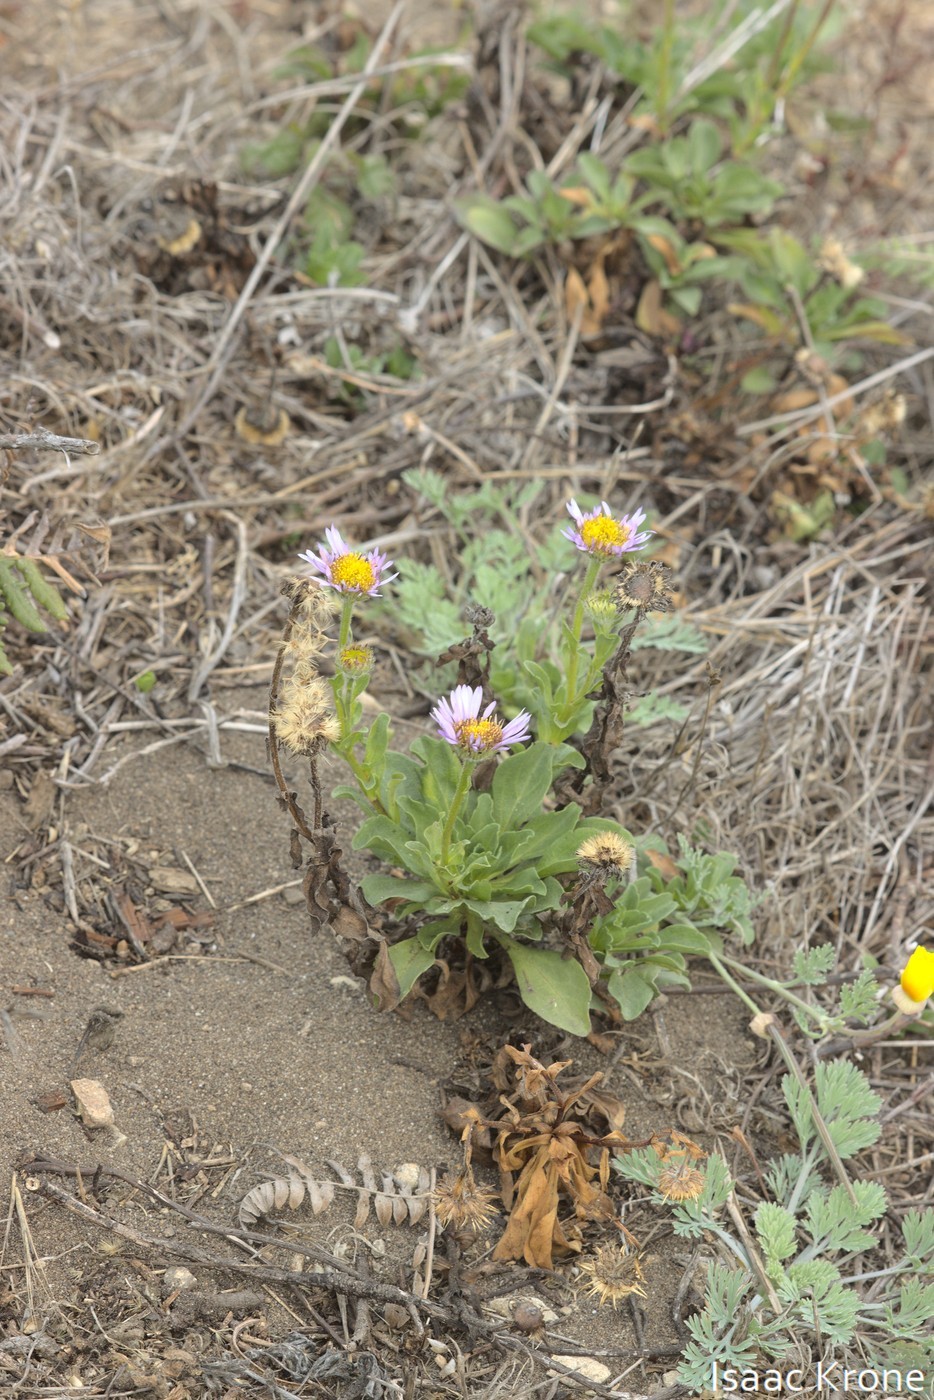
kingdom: Plantae
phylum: Tracheophyta
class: Magnoliopsida
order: Asterales
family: Asteraceae
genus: Erigeron
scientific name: Erigeron glaucus
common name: Seaside daisy
